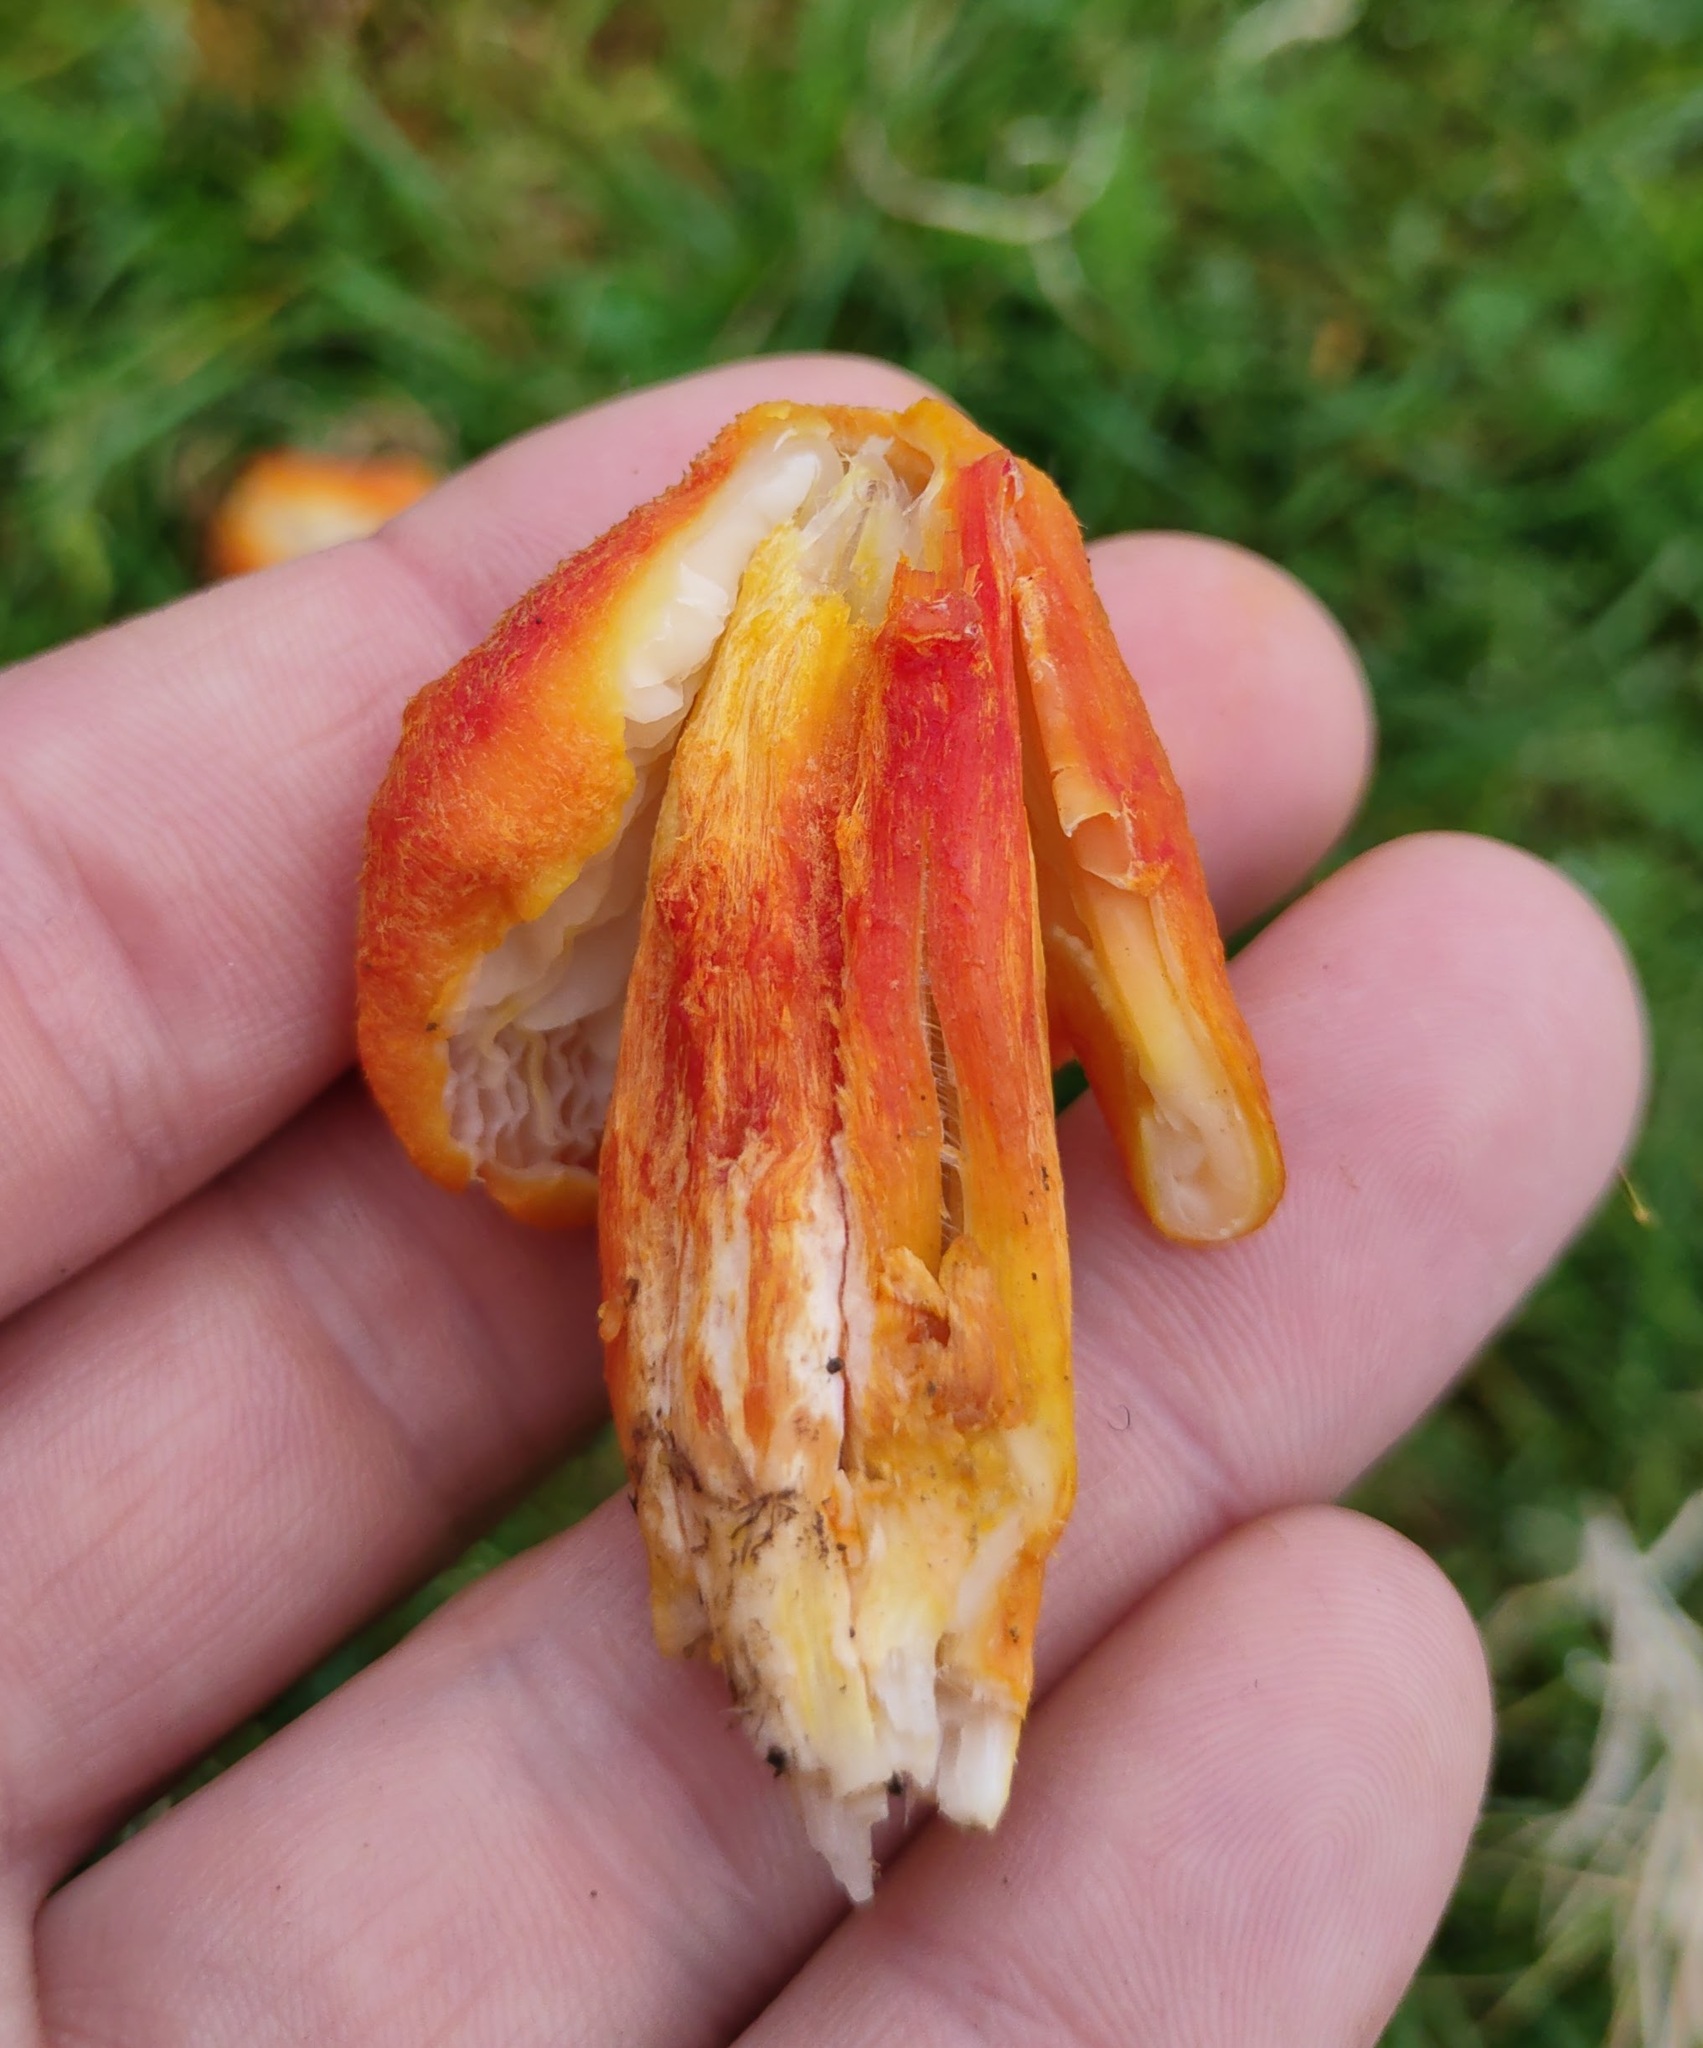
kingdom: Fungi
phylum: Basidiomycota
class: Agaricomycetes
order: Agaricales
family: Hygrophoraceae
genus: Hygrocybe
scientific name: Hygrocybe intermedia
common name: Fibrous waxcap
